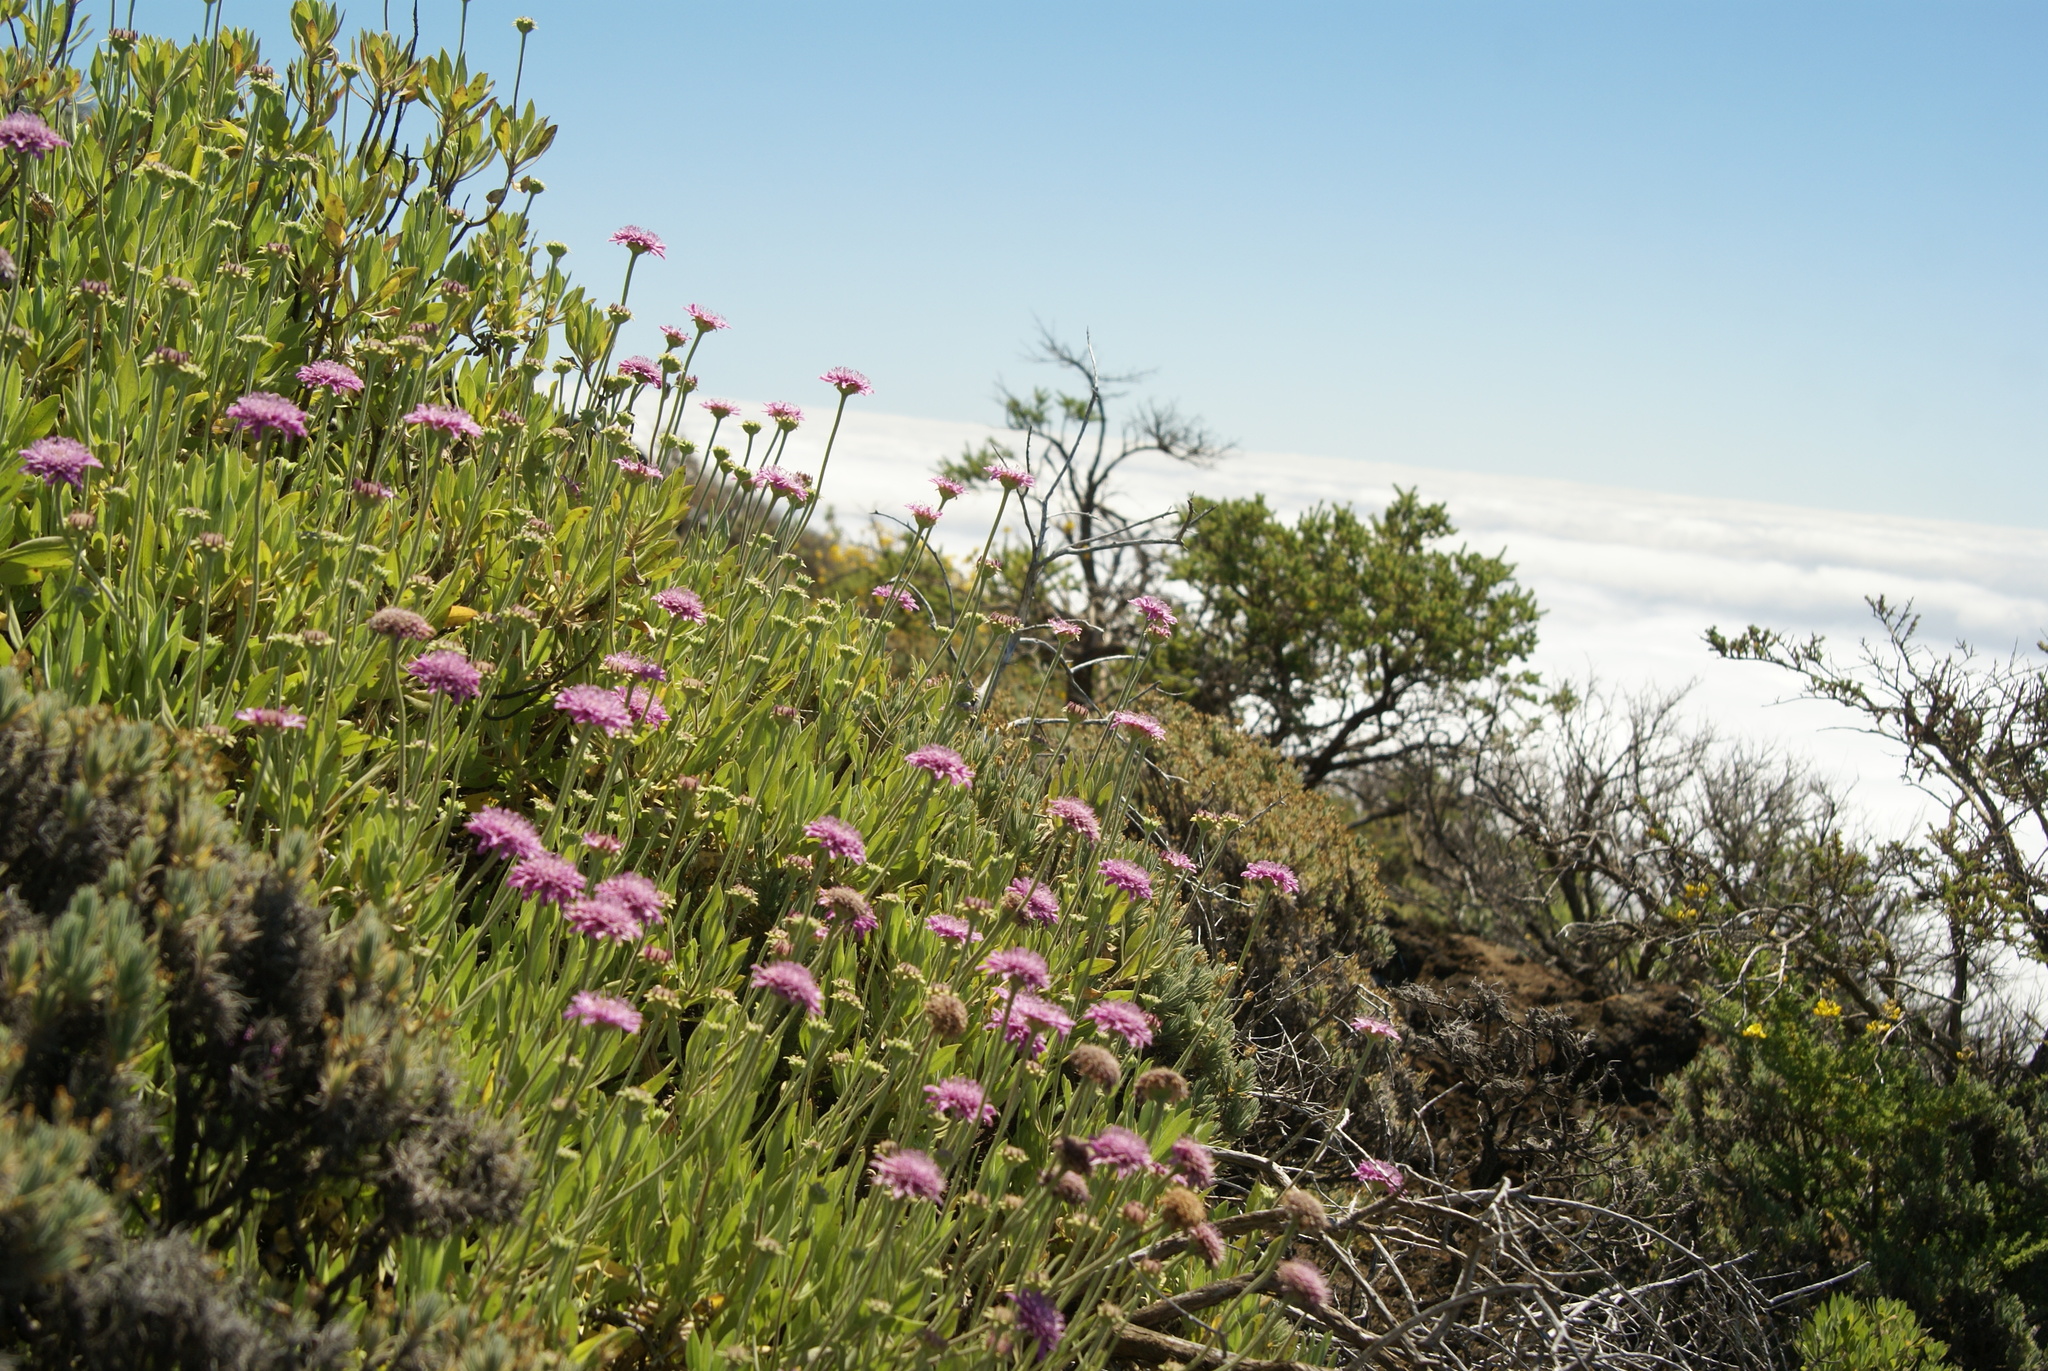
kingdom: Plantae
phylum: Tracheophyta
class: Magnoliopsida
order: Dipsacales
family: Caprifoliaceae
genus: Pterocephalus
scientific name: Pterocephalus porphyranthus
